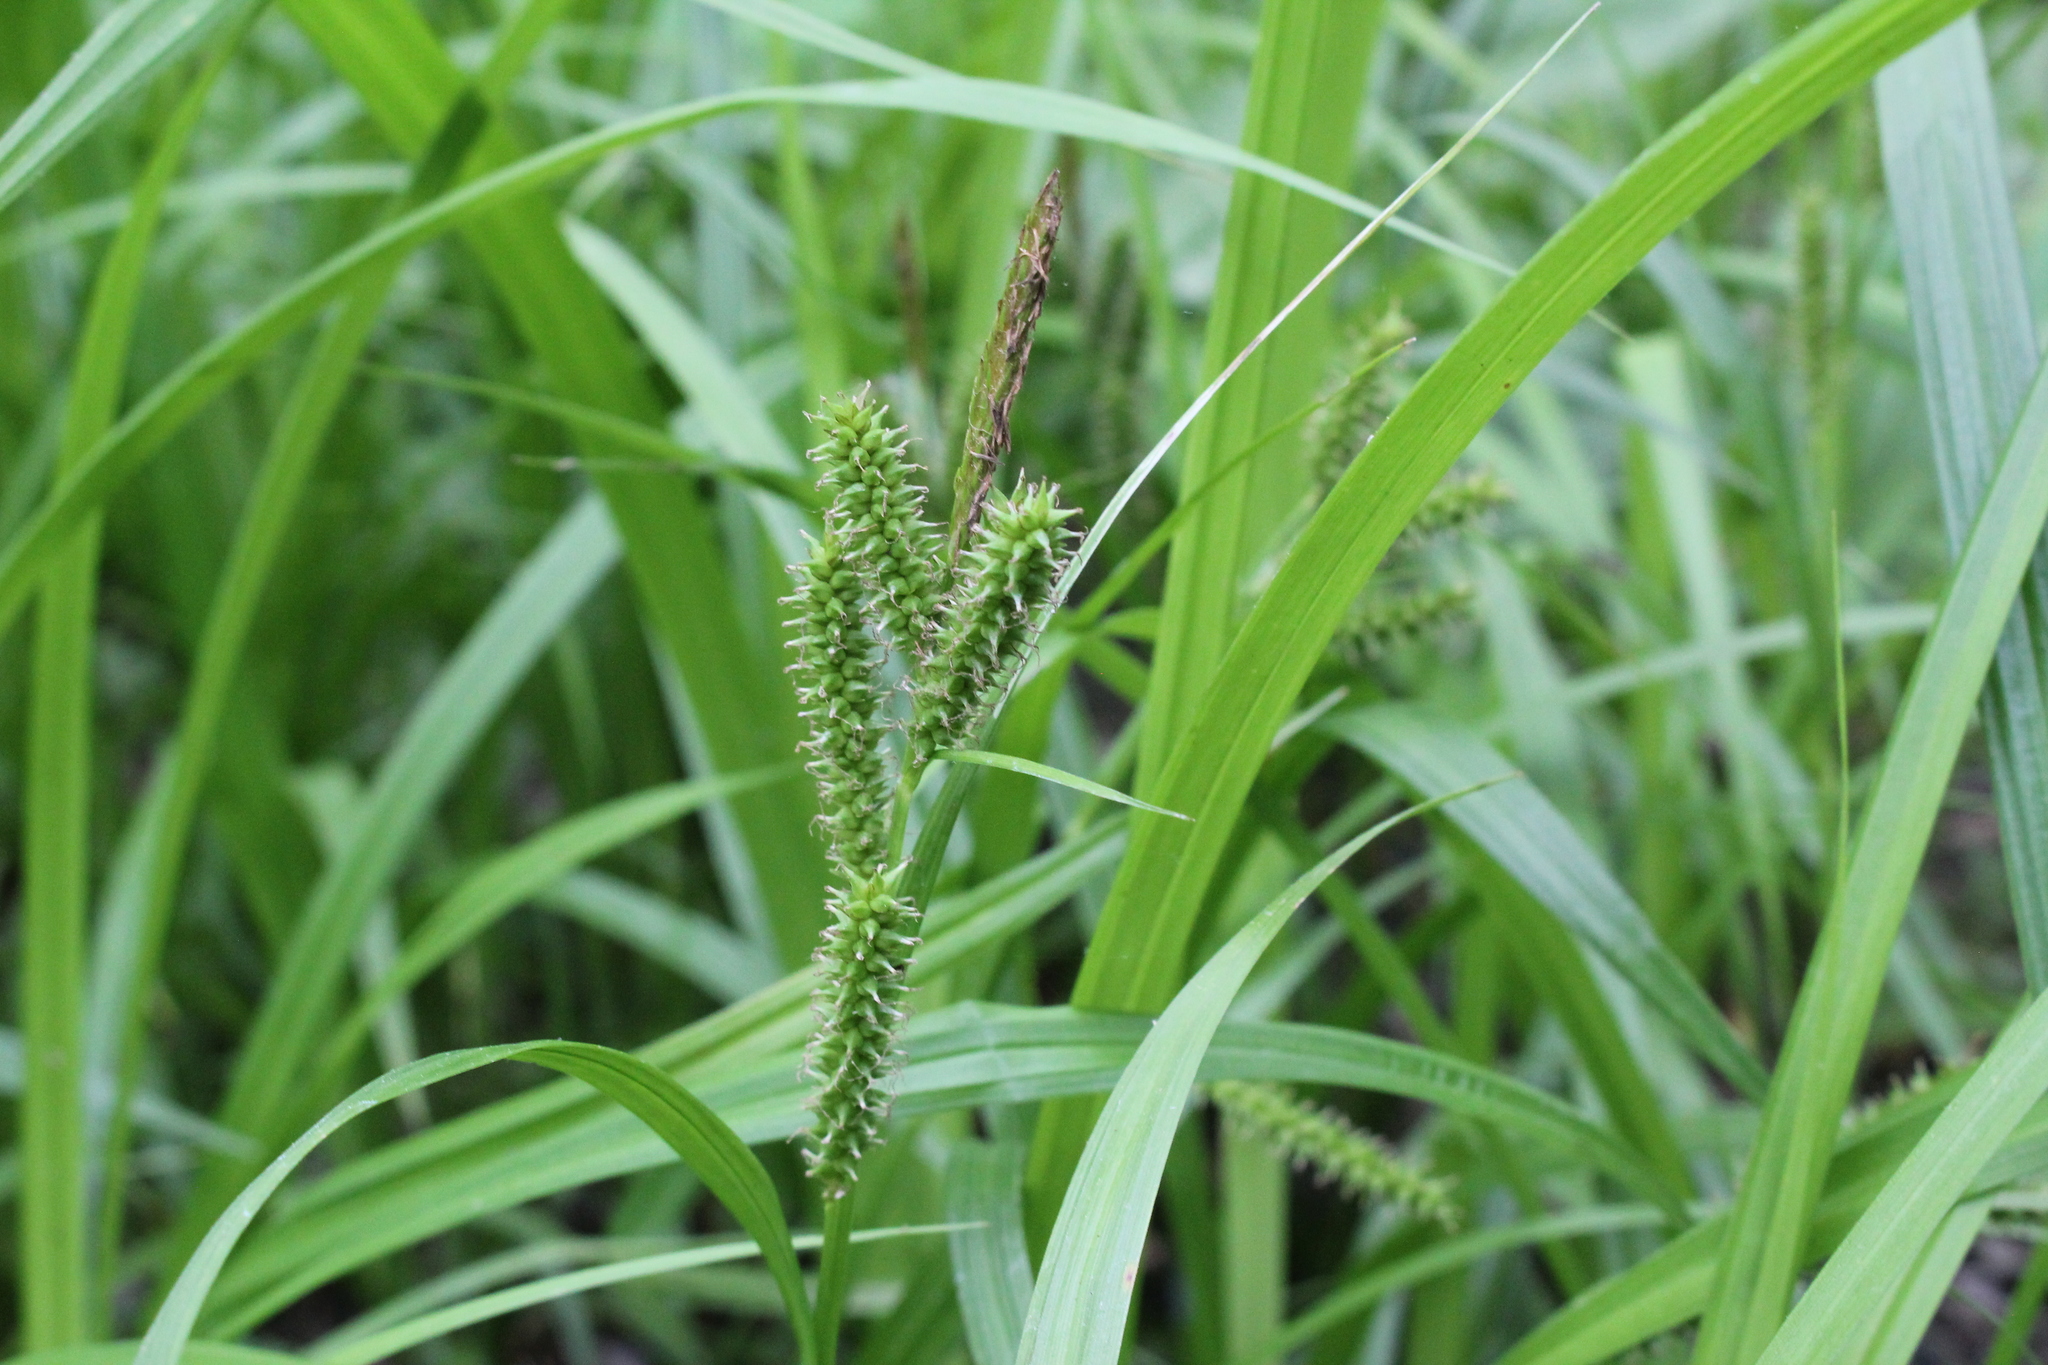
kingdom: Plantae
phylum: Tracheophyta
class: Liliopsida
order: Poales
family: Cyperaceae
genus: Carex
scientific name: Carex scabrata
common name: Eastern rough sedge
